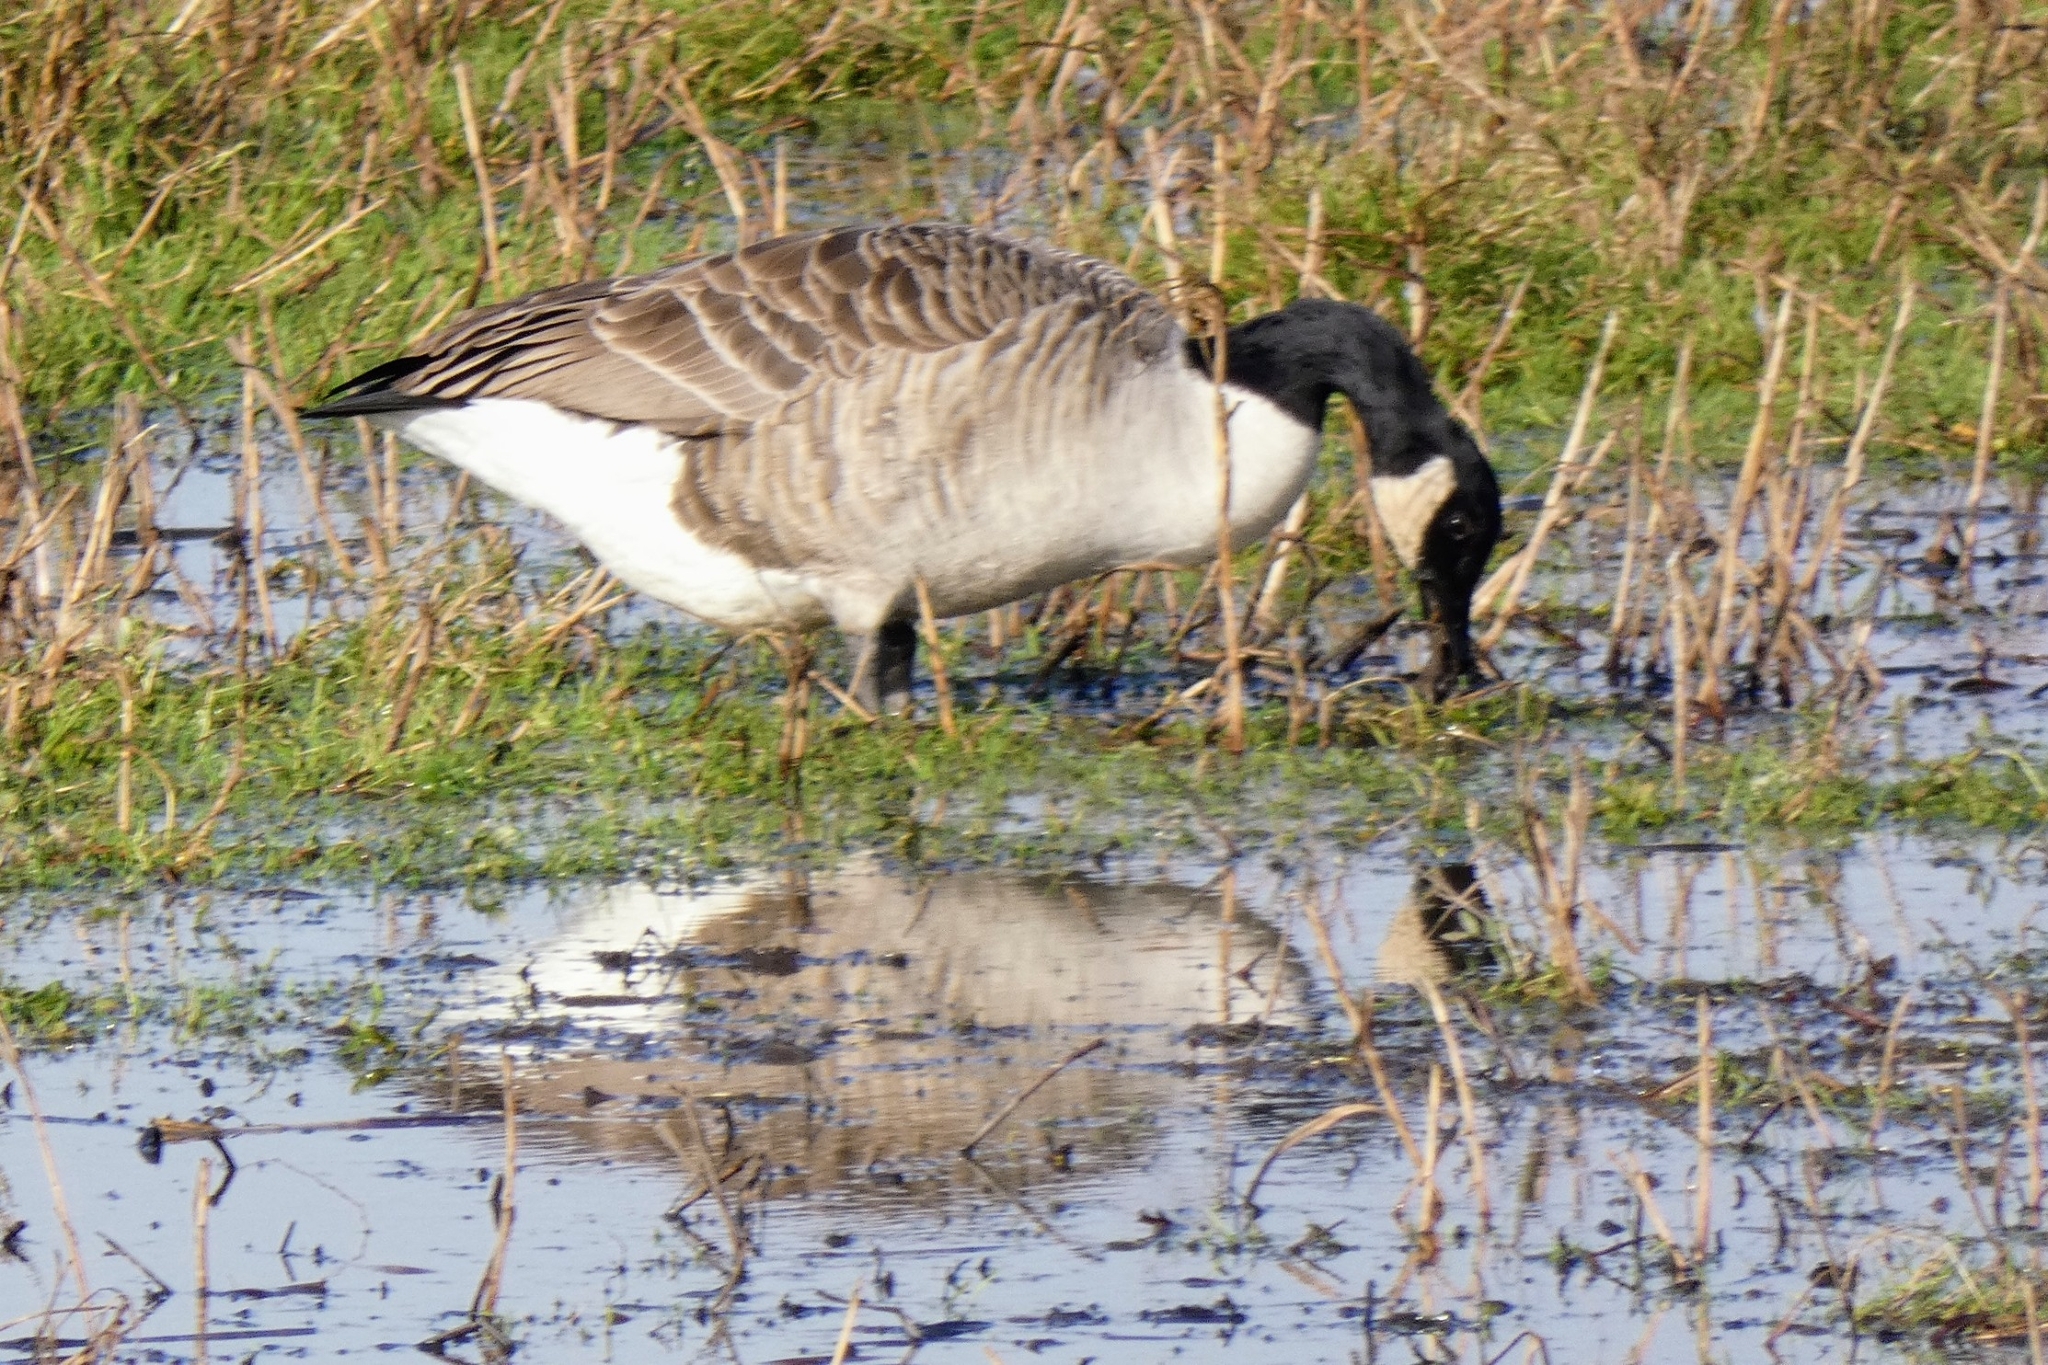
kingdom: Animalia
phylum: Chordata
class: Aves
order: Anseriformes
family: Anatidae
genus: Branta
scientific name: Branta canadensis
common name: Canada goose
